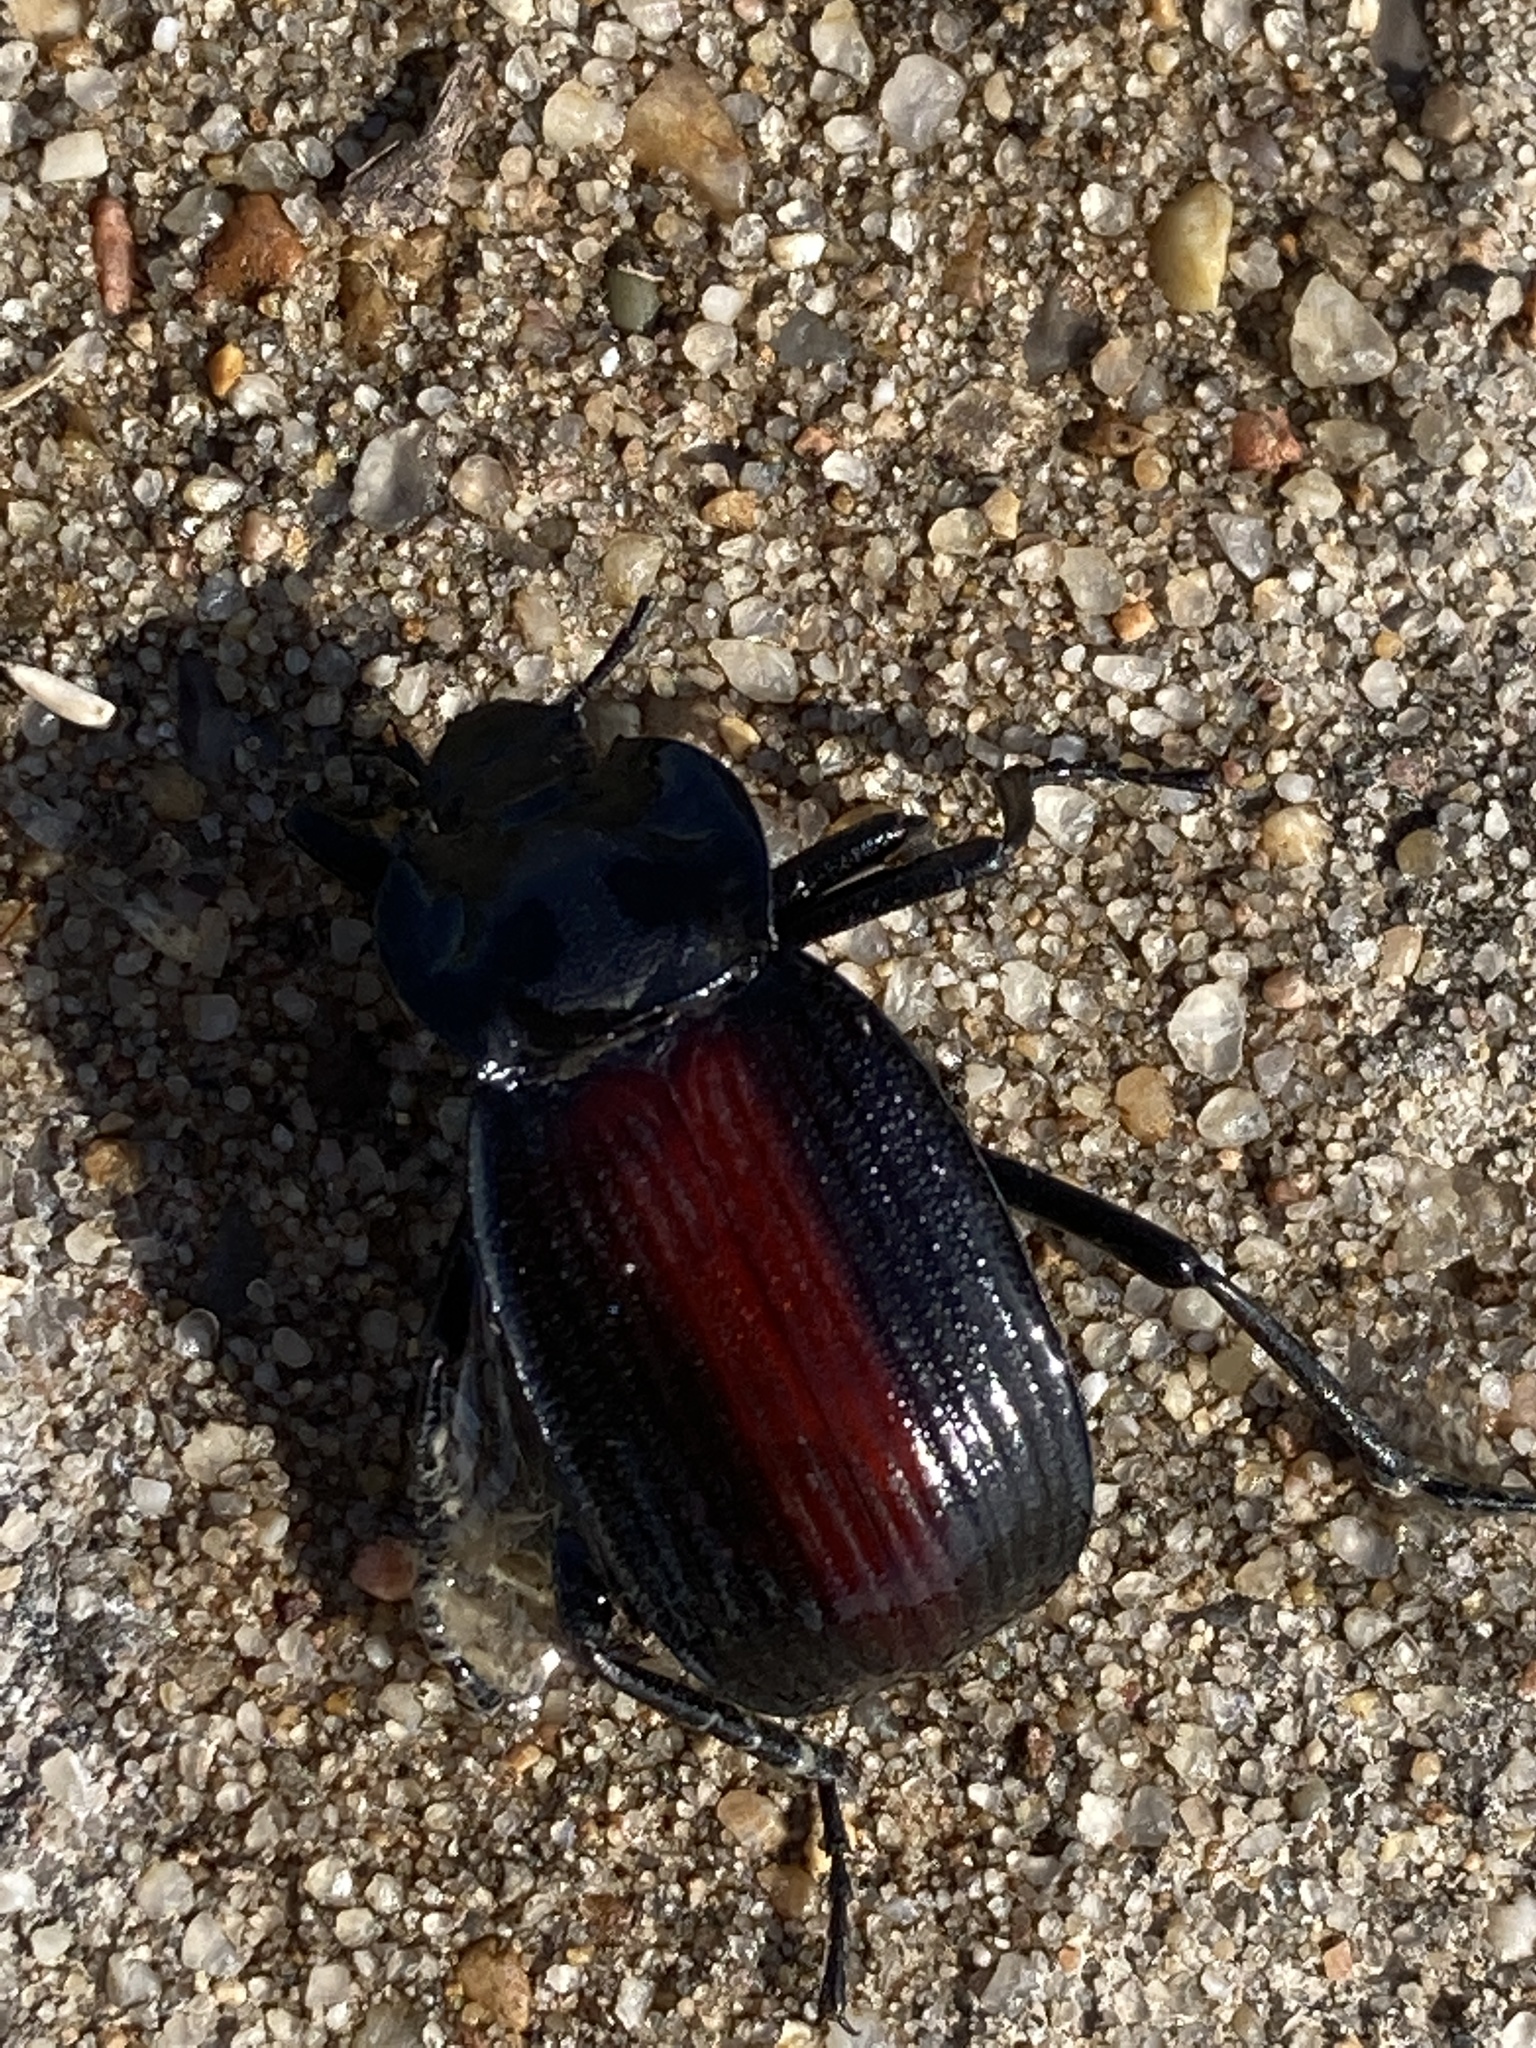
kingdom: Animalia
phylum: Arthropoda
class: Insecta
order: Coleoptera
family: Tenebrionidae
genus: Eleodes
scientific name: Eleodes suturalis
